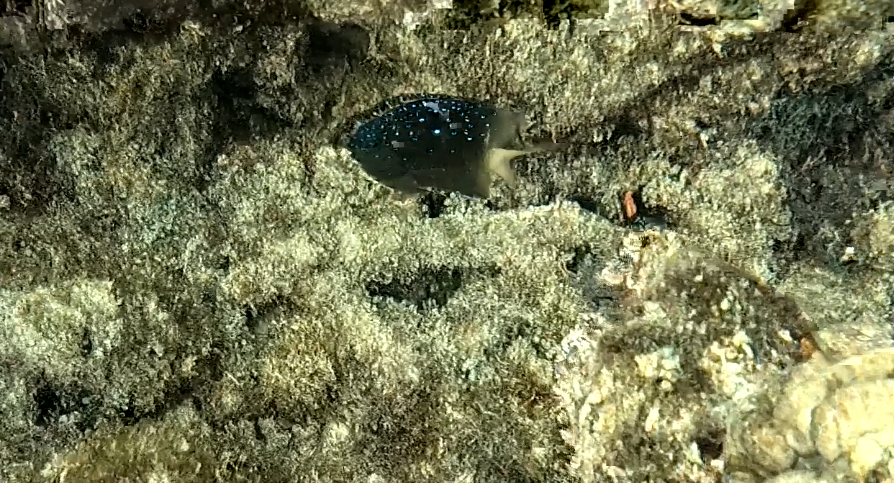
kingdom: Animalia
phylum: Chordata
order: Perciformes
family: Pomacentridae
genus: Plectroglyphidodon
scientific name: Plectroglyphidodon lacrymatus
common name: Jewel damsel
